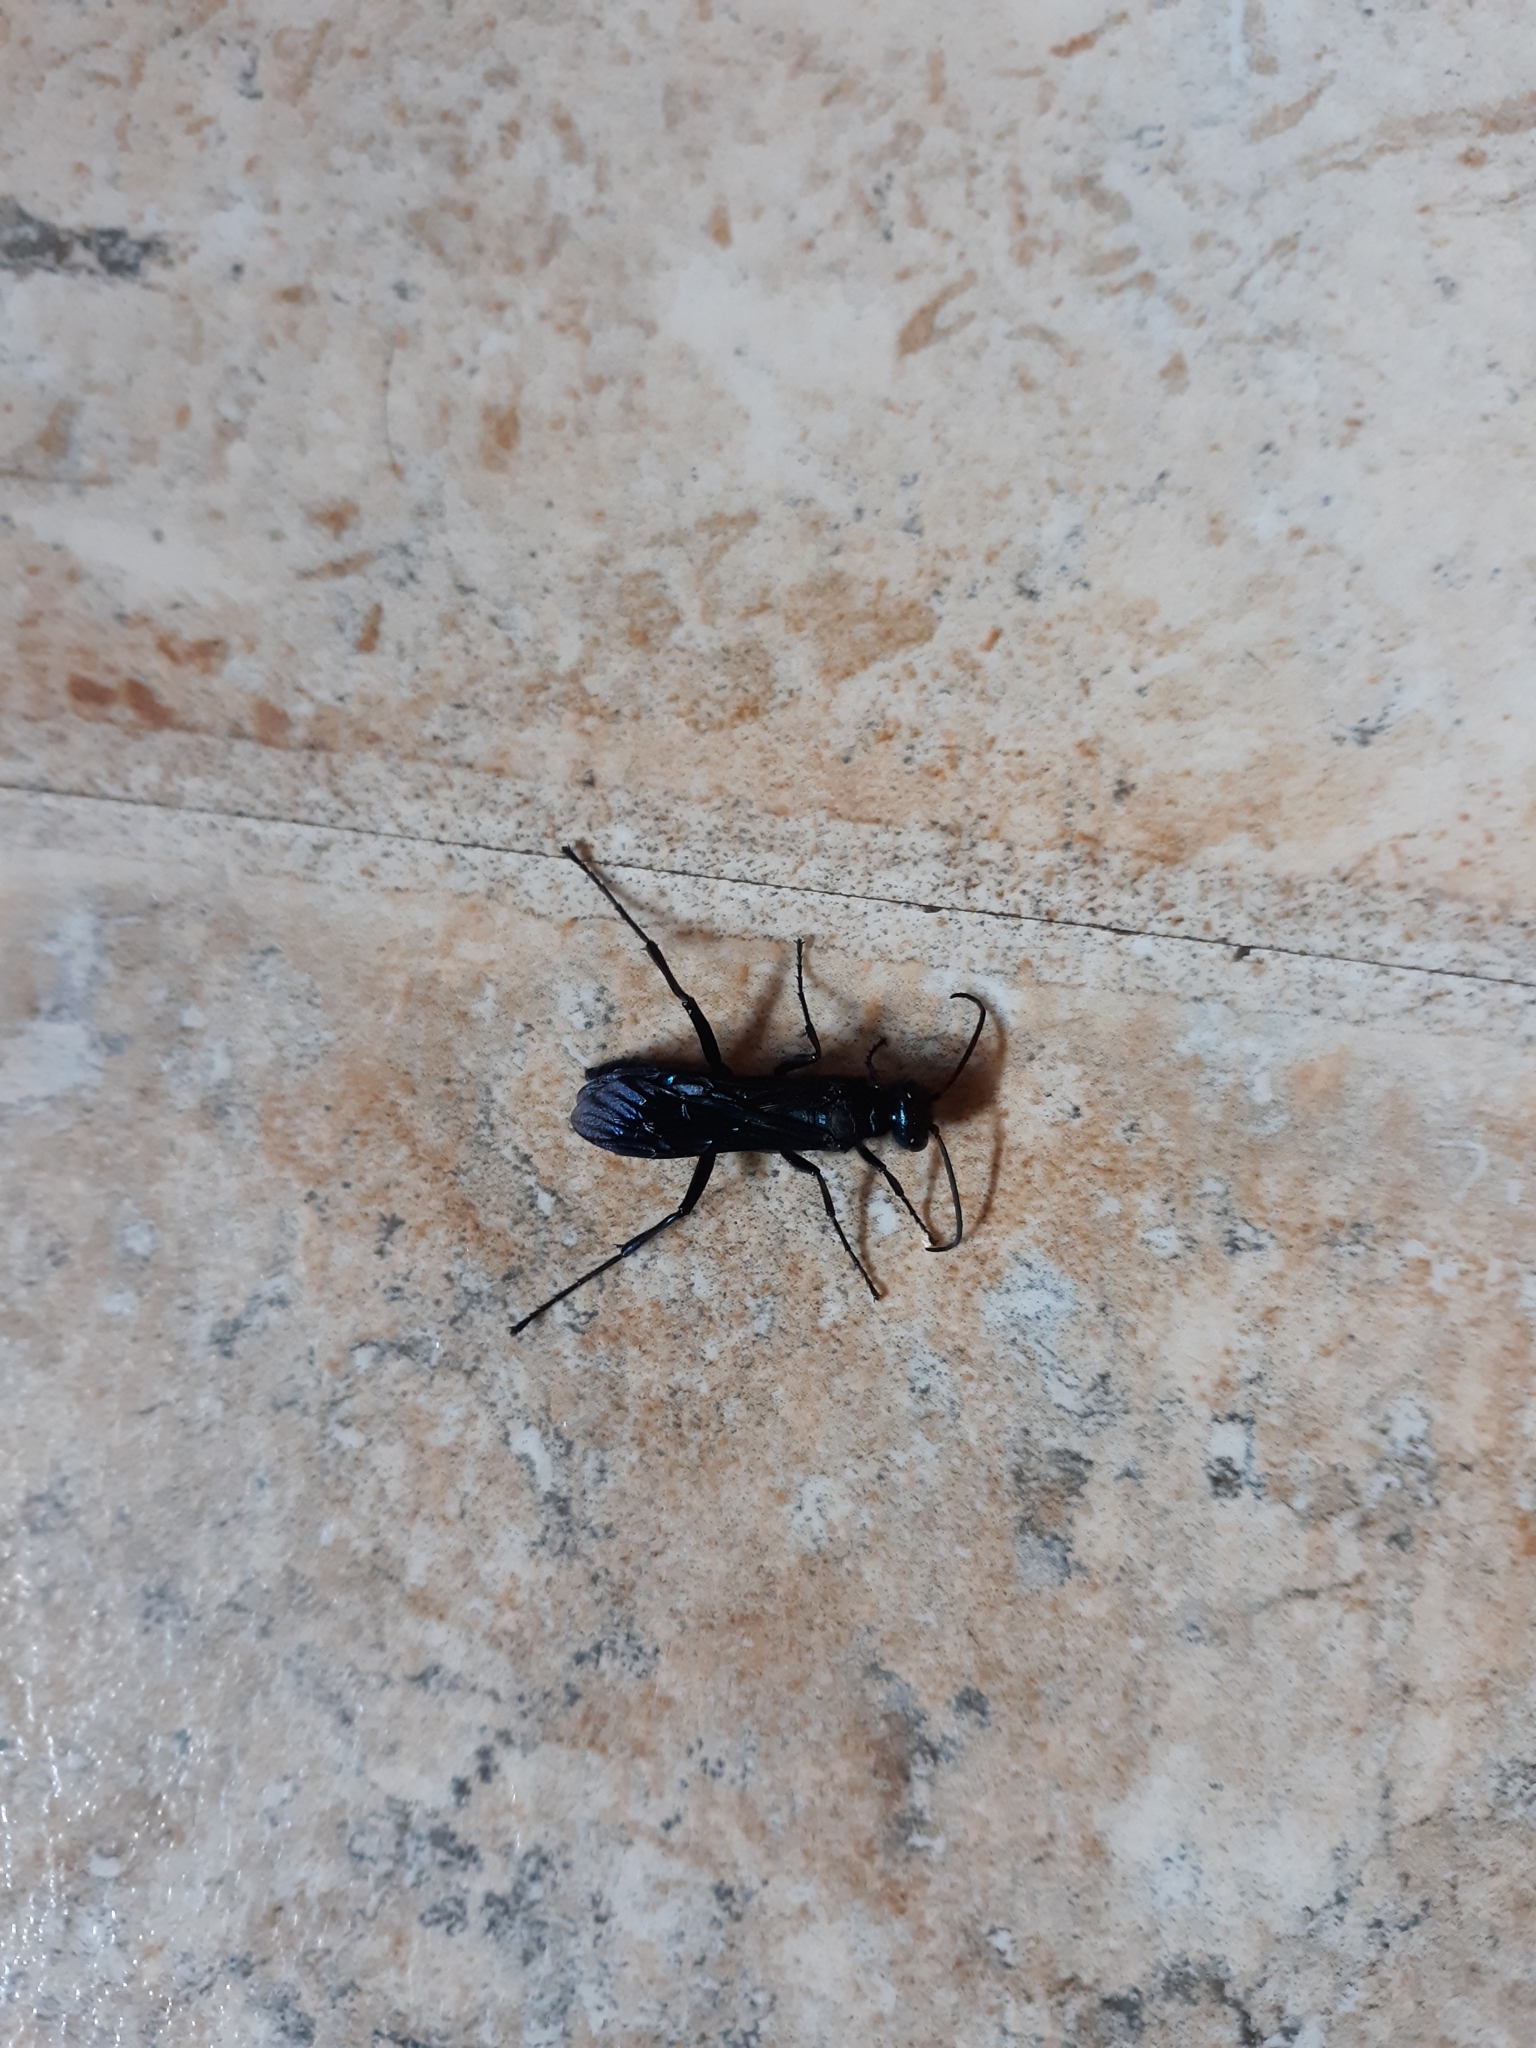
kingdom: Animalia
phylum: Arthropoda
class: Insecta
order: Hymenoptera
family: Sphecidae
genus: Chalybion
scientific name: Chalybion californicum
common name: Mud dauber
